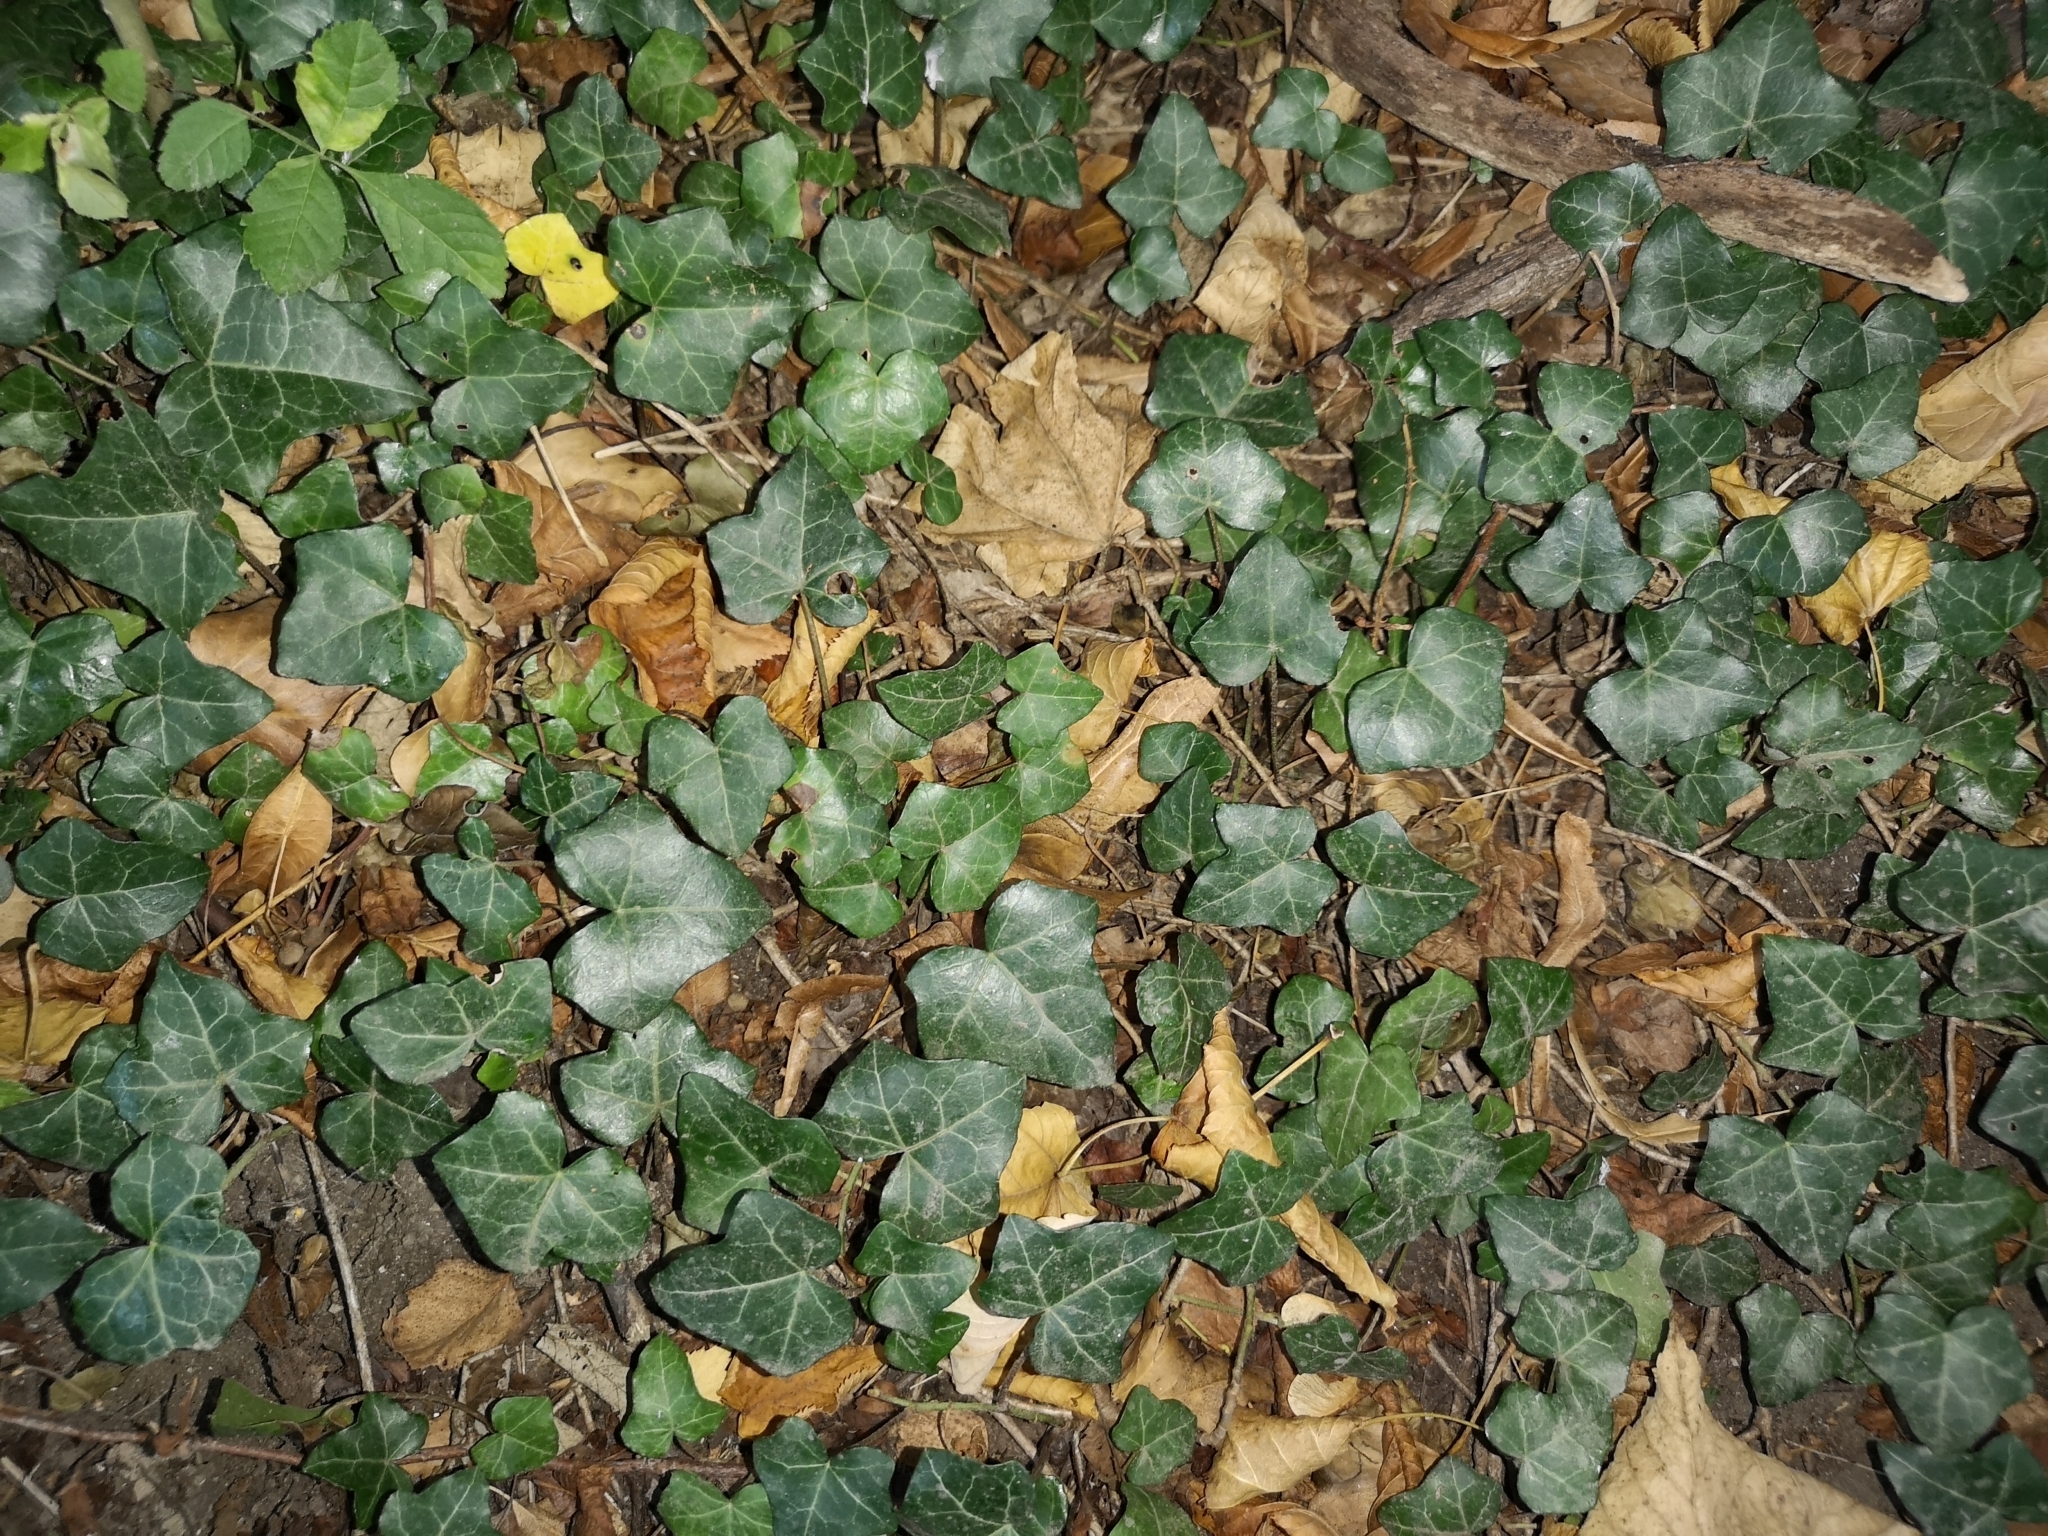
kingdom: Plantae
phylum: Tracheophyta
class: Magnoliopsida
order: Apiales
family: Araliaceae
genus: Hedera
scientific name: Hedera helix
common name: Ivy
